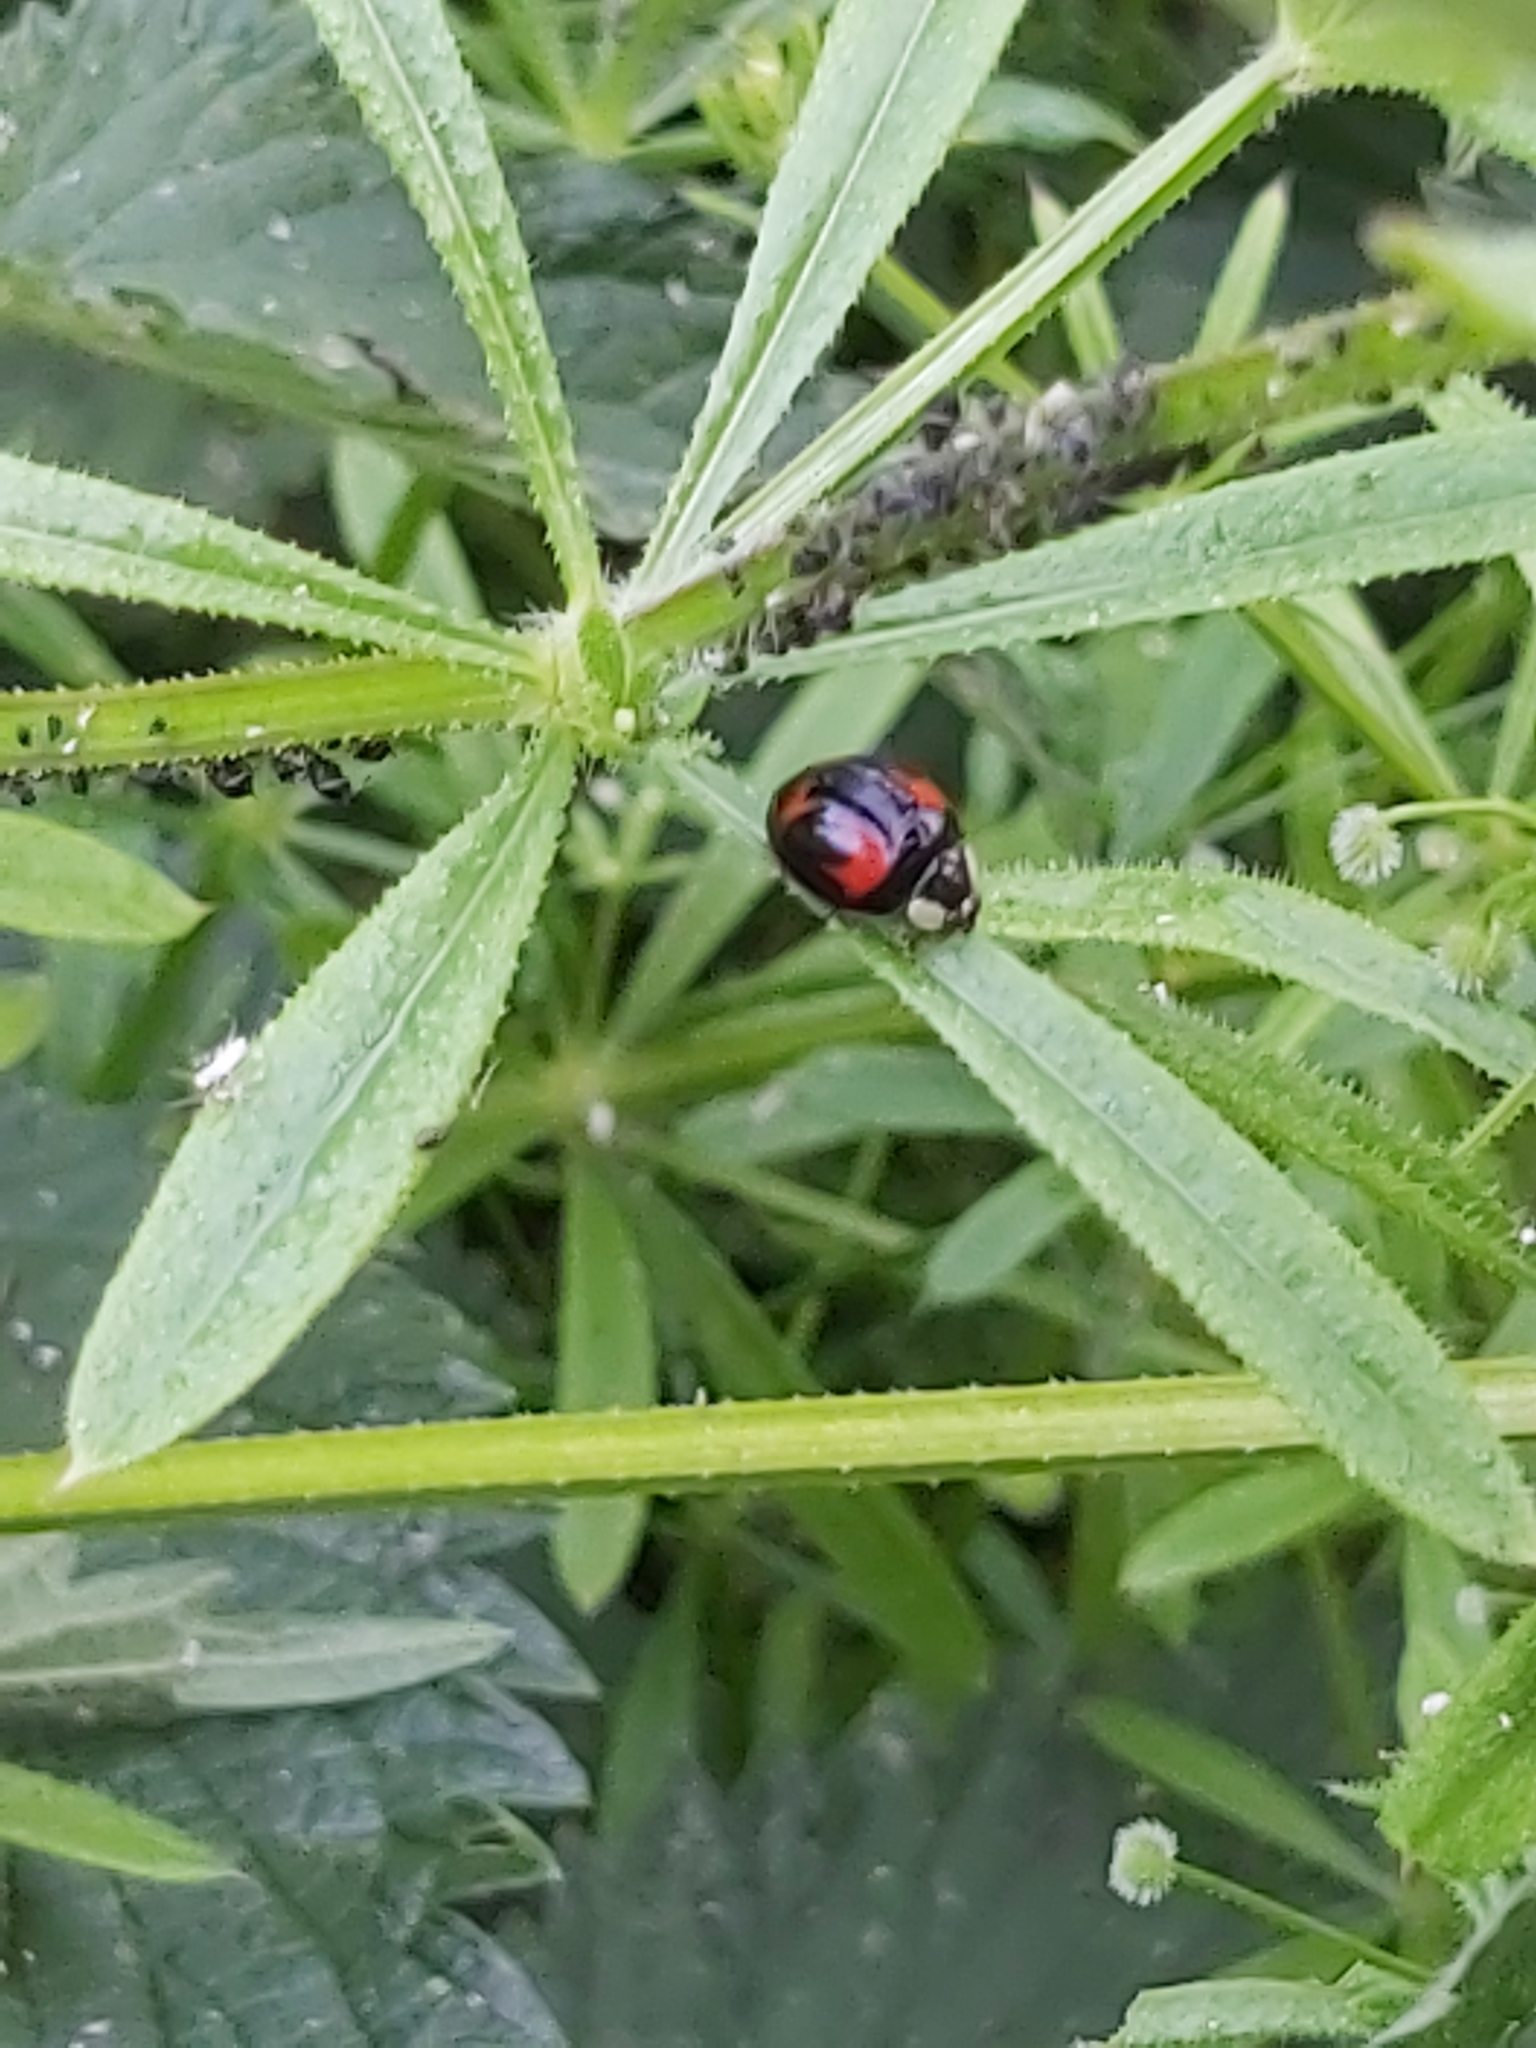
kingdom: Animalia
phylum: Arthropoda
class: Insecta
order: Coleoptera
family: Coccinellidae
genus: Harmonia
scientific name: Harmonia axyridis
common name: Harlequin ladybird
